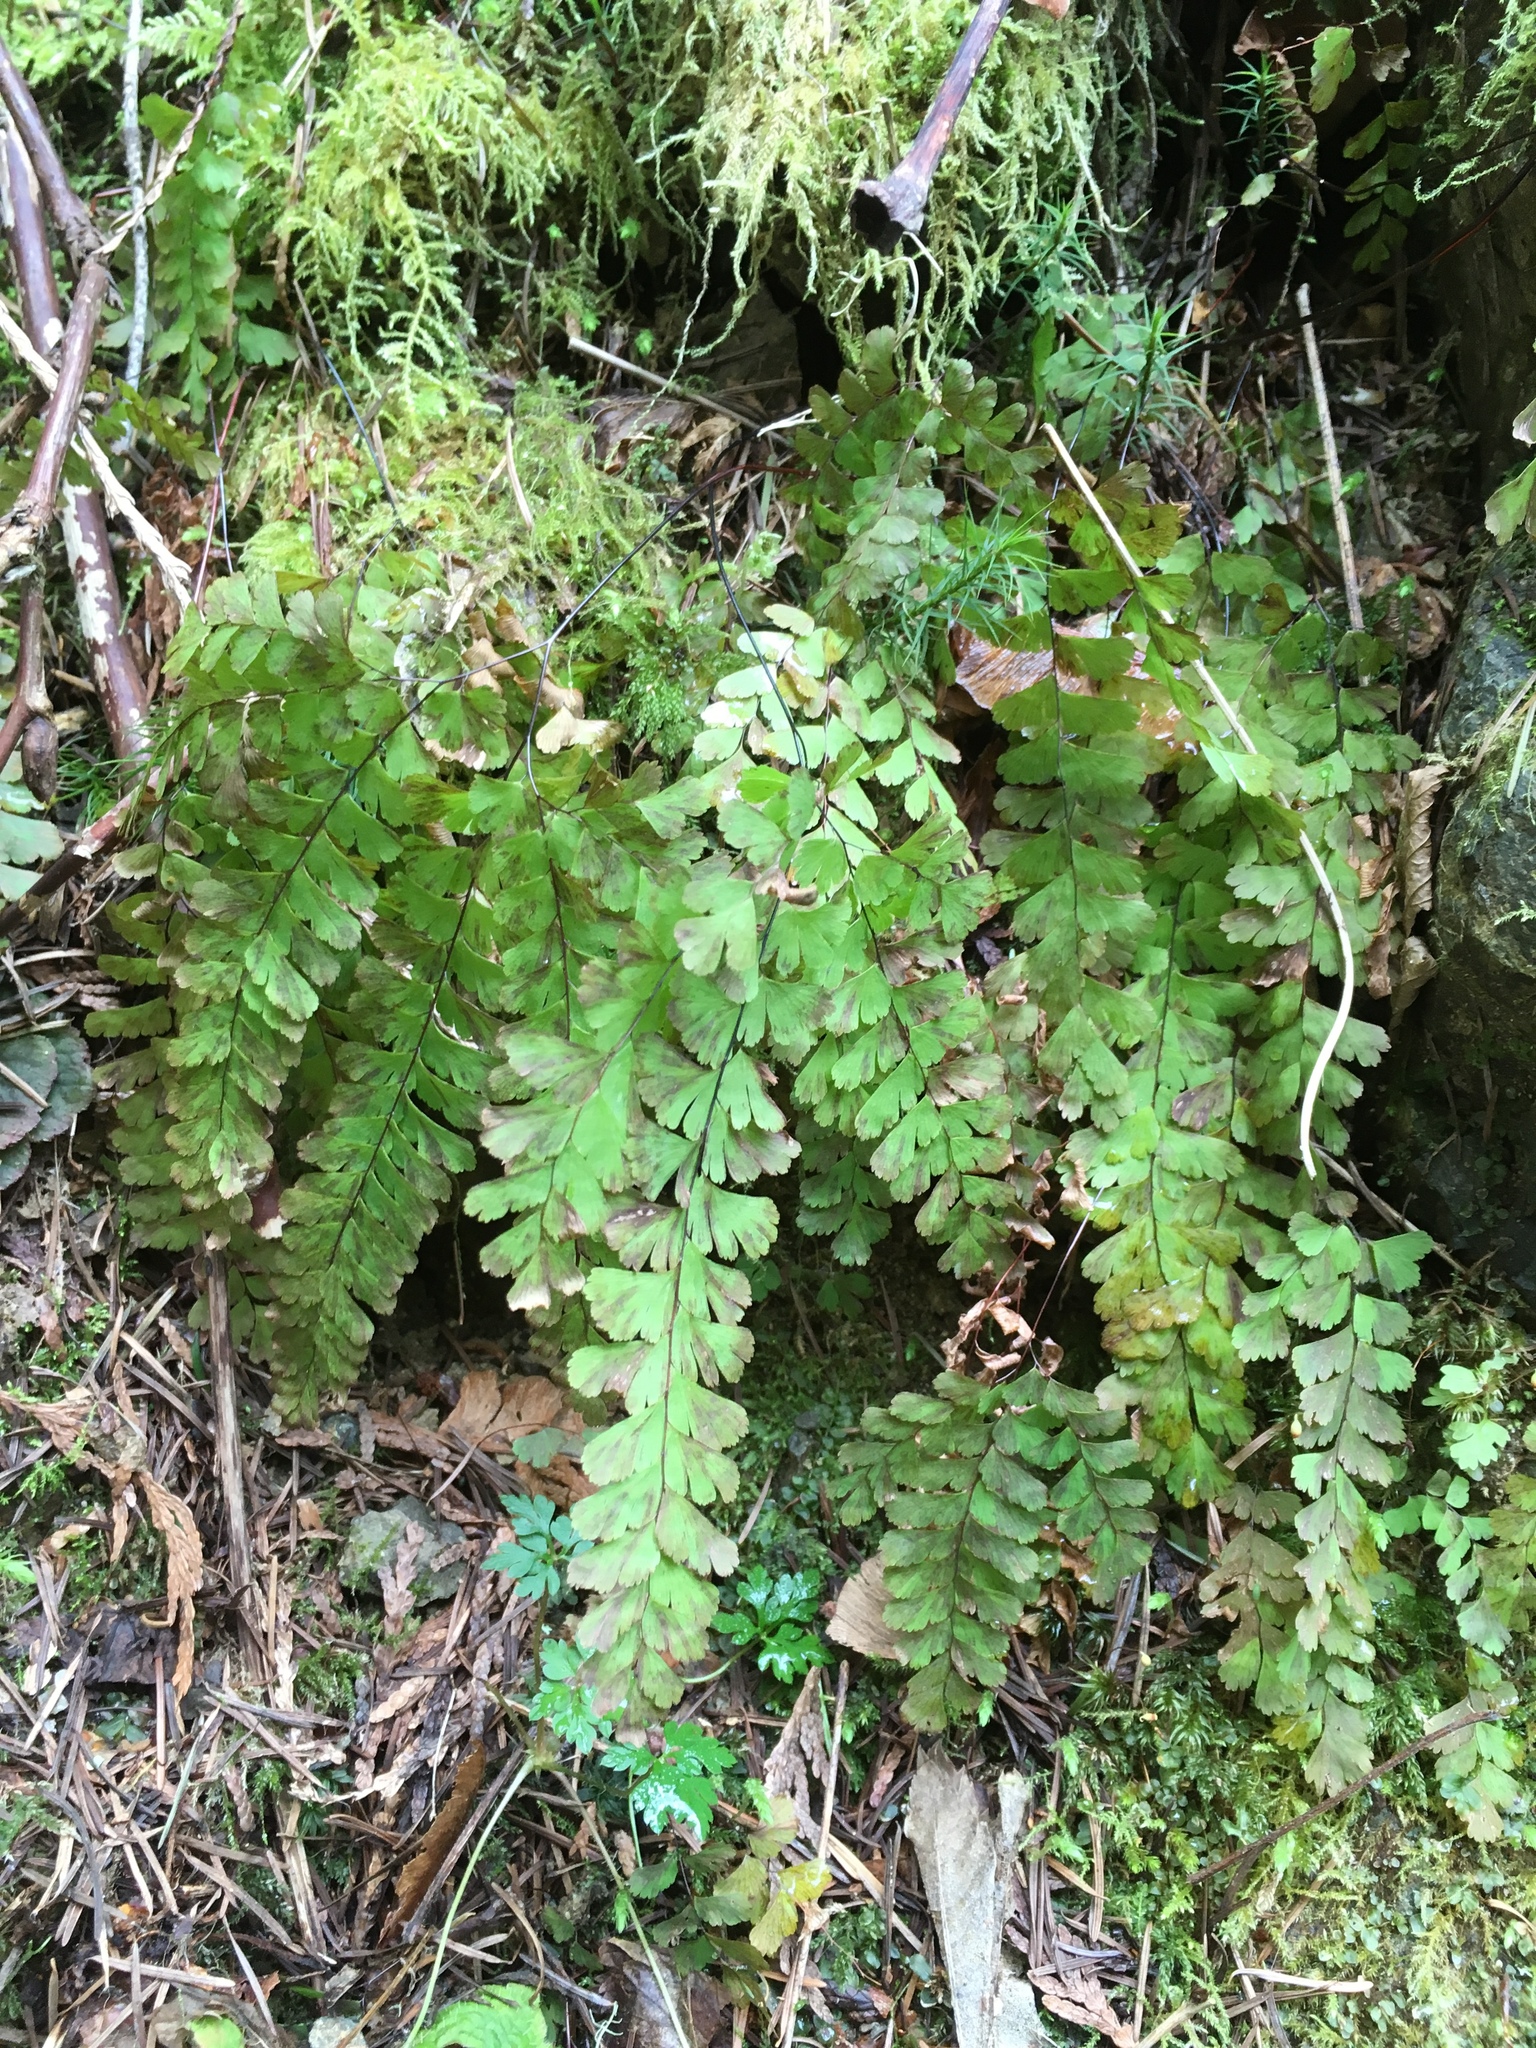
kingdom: Plantae
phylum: Tracheophyta
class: Polypodiopsida
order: Polypodiales
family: Pteridaceae
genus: Adiantum
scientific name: Adiantum aleuticum
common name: Aleutian maidenhair fern
